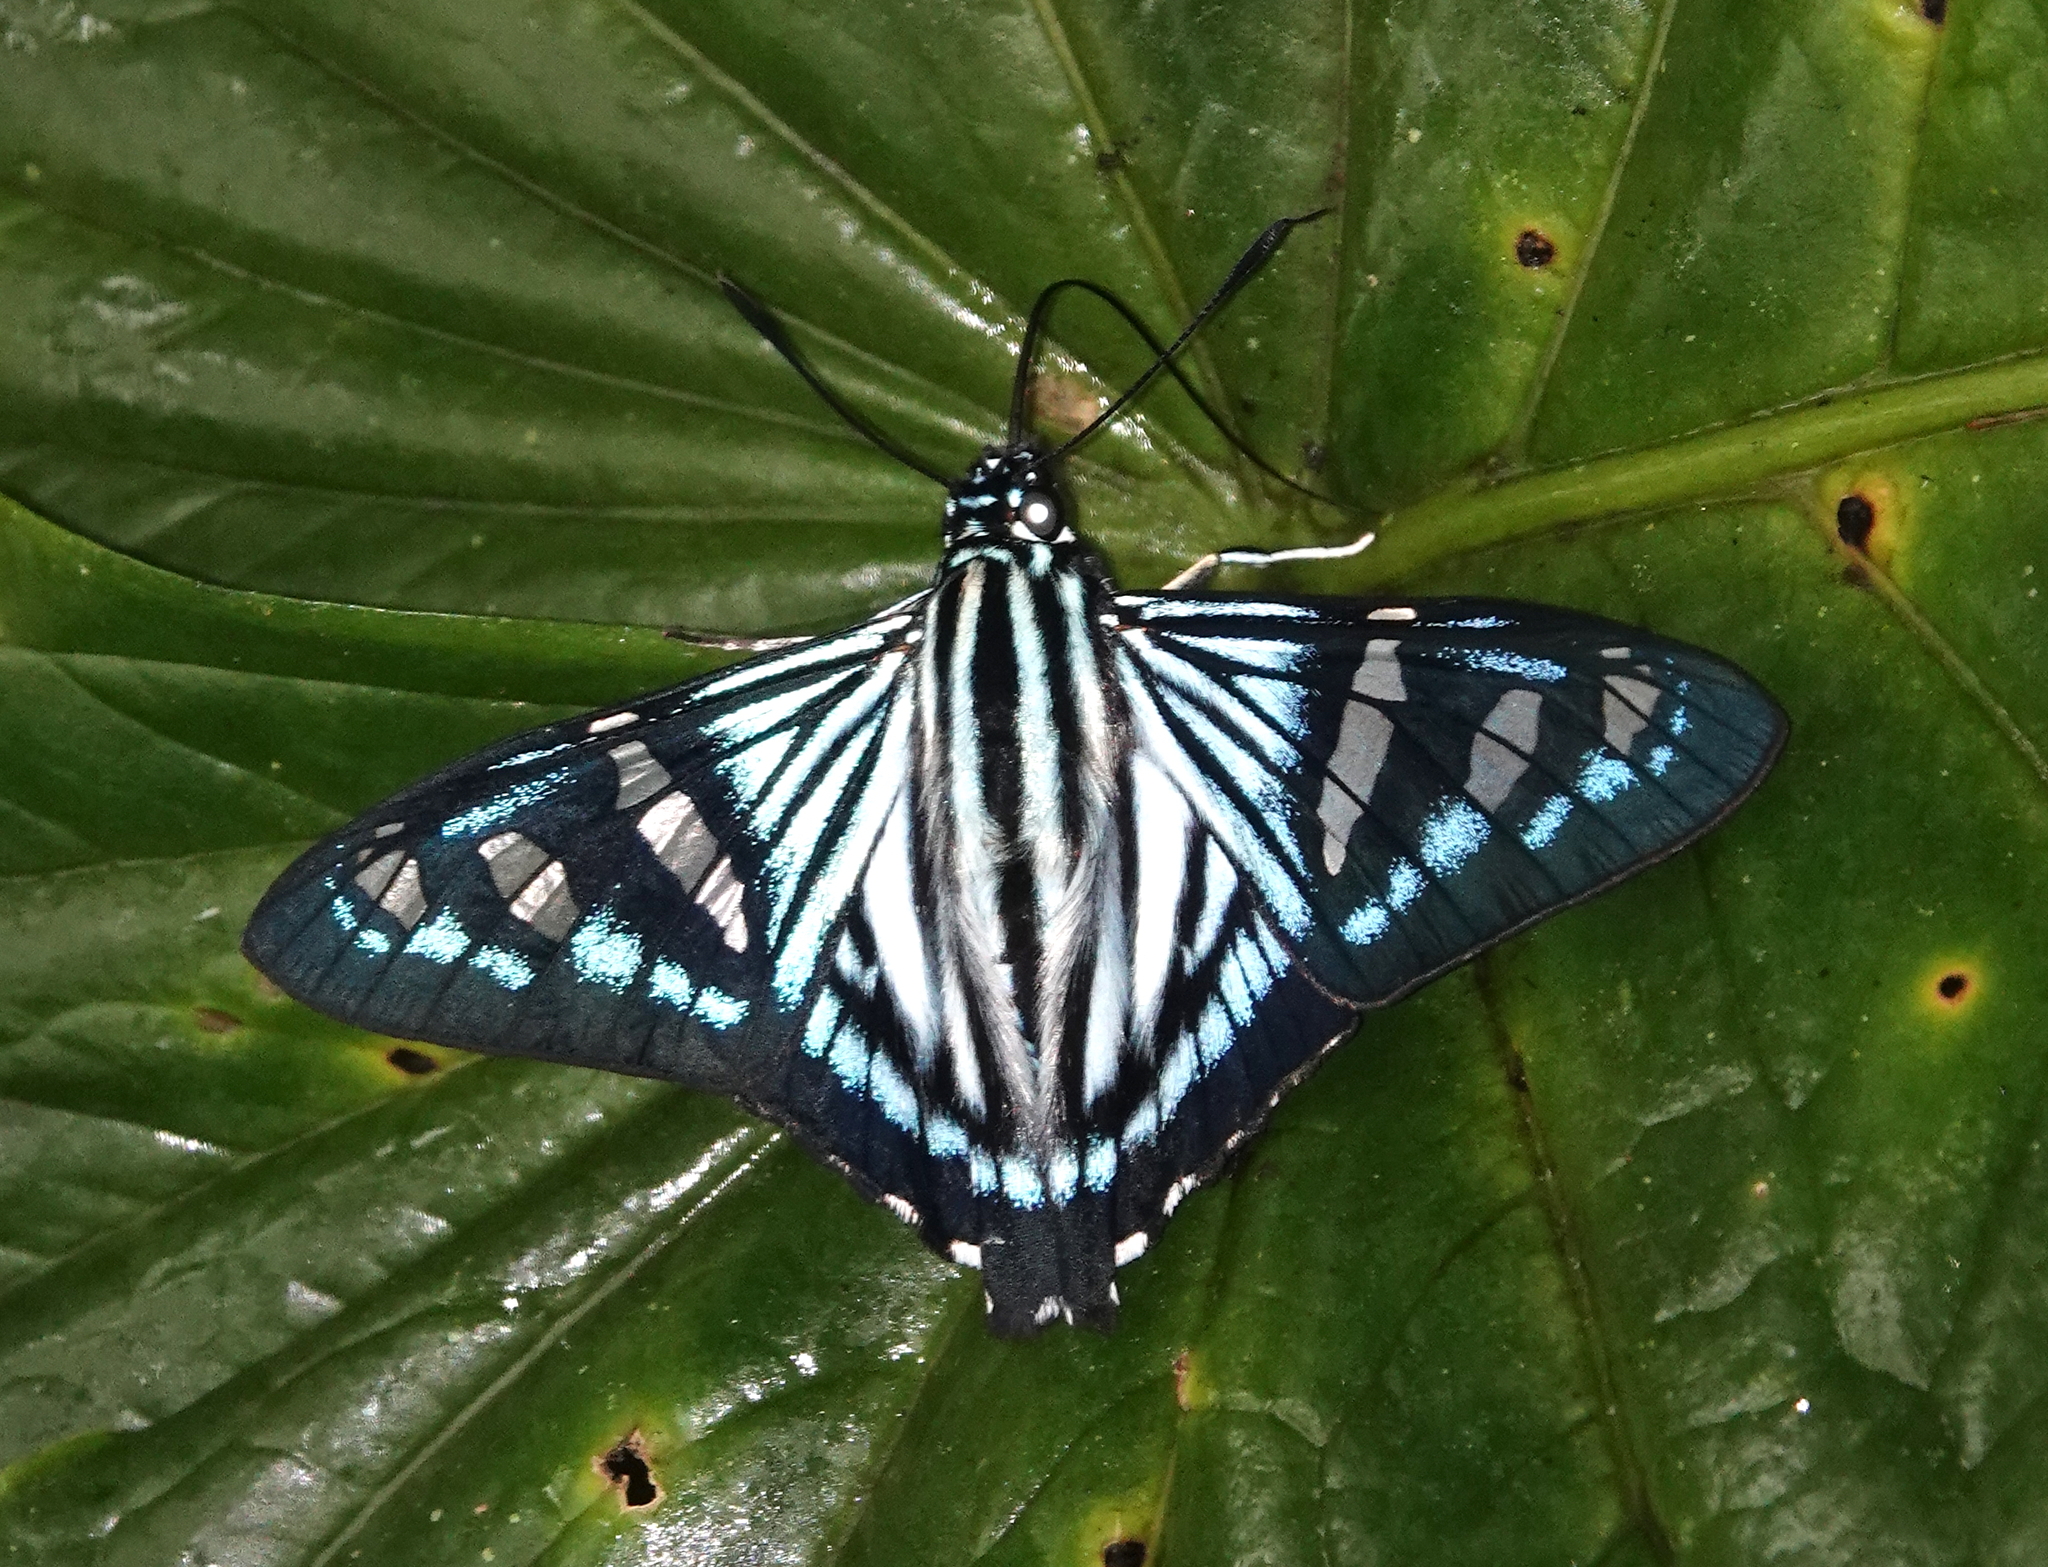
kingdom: Animalia
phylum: Arthropoda
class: Insecta
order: Lepidoptera
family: Hesperiidae
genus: Phocides
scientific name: Phocides perillus
